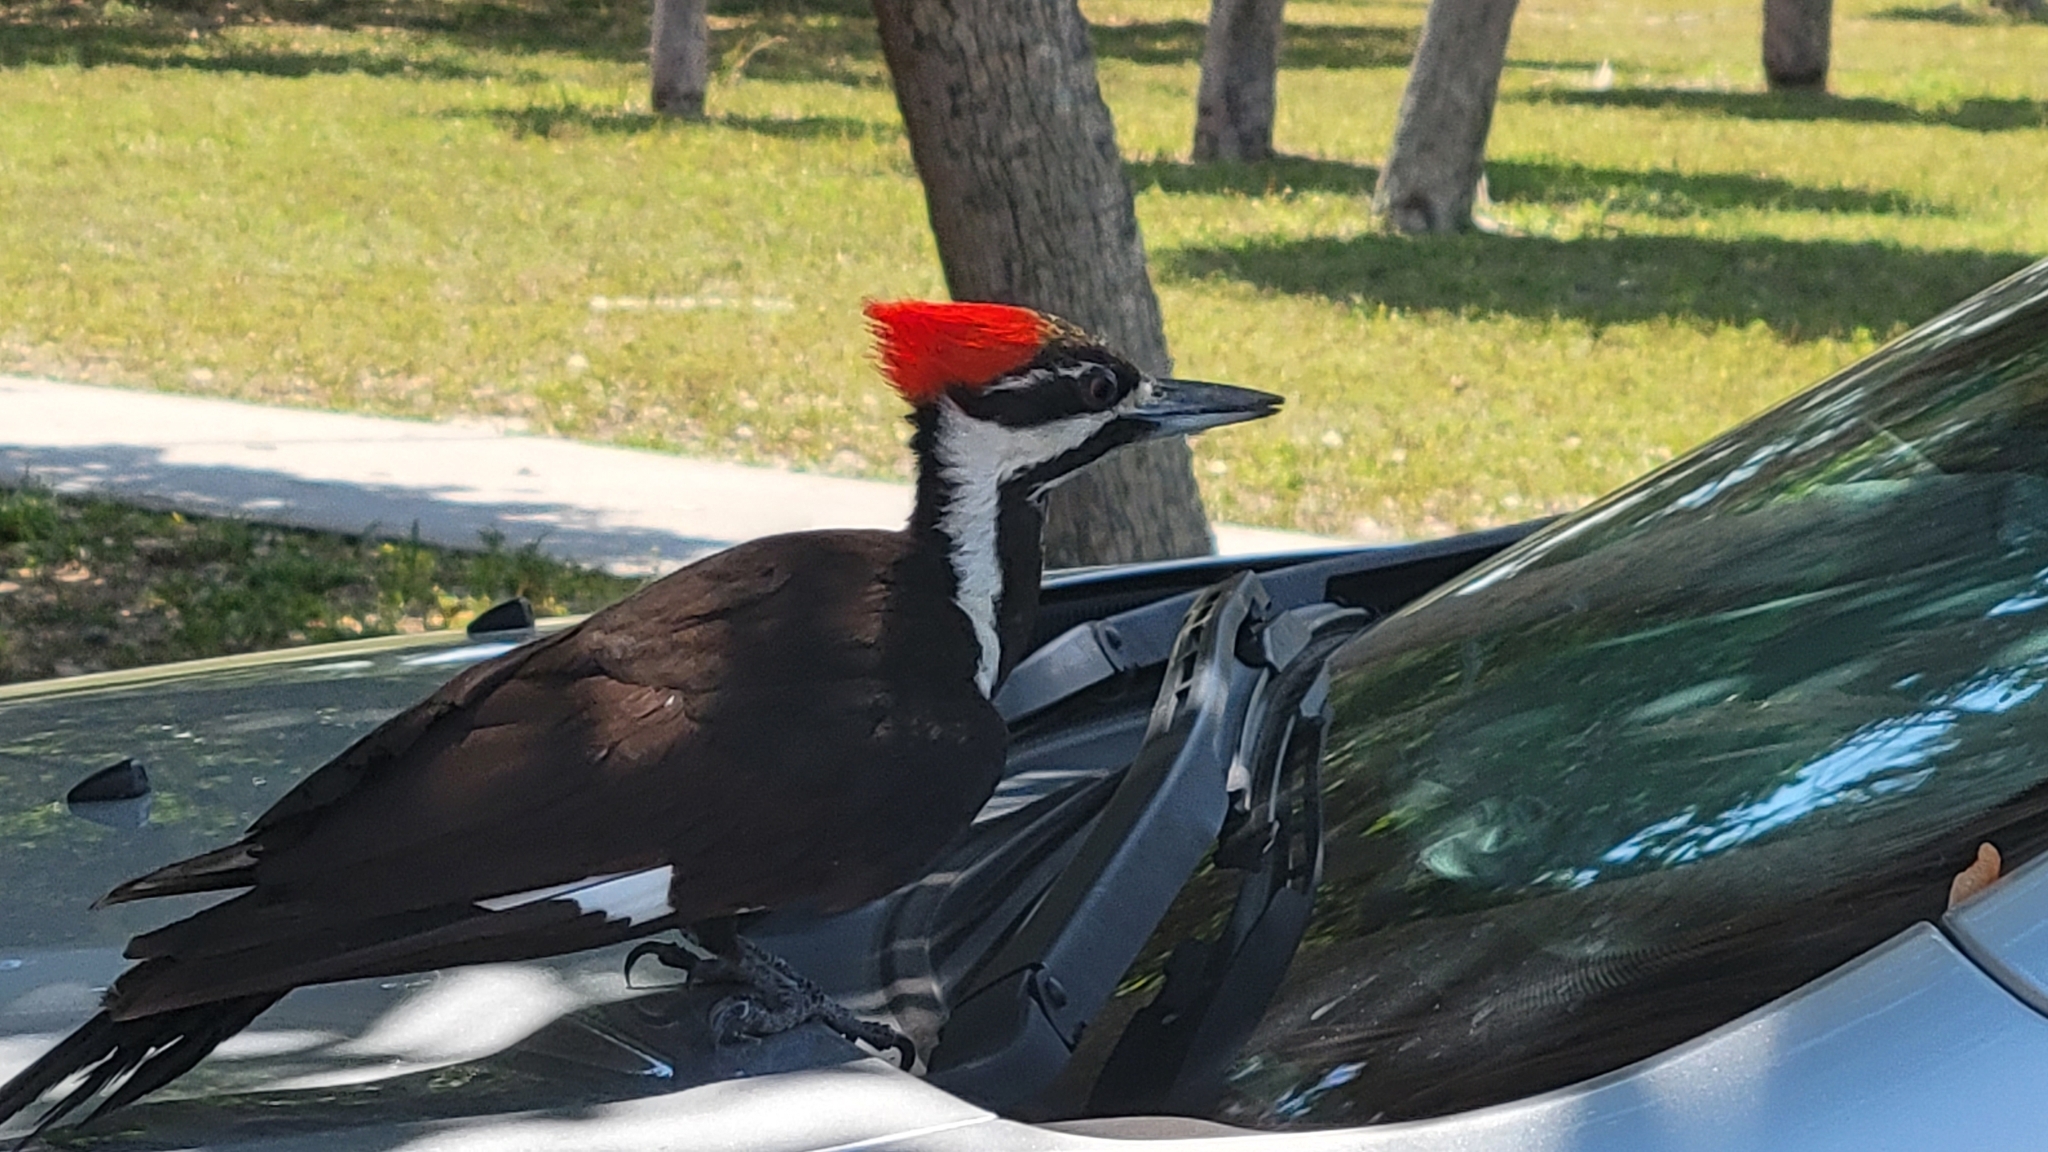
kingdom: Animalia
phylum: Chordata
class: Aves
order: Piciformes
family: Picidae
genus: Dryocopus
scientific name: Dryocopus pileatus
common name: Pileated woodpecker
